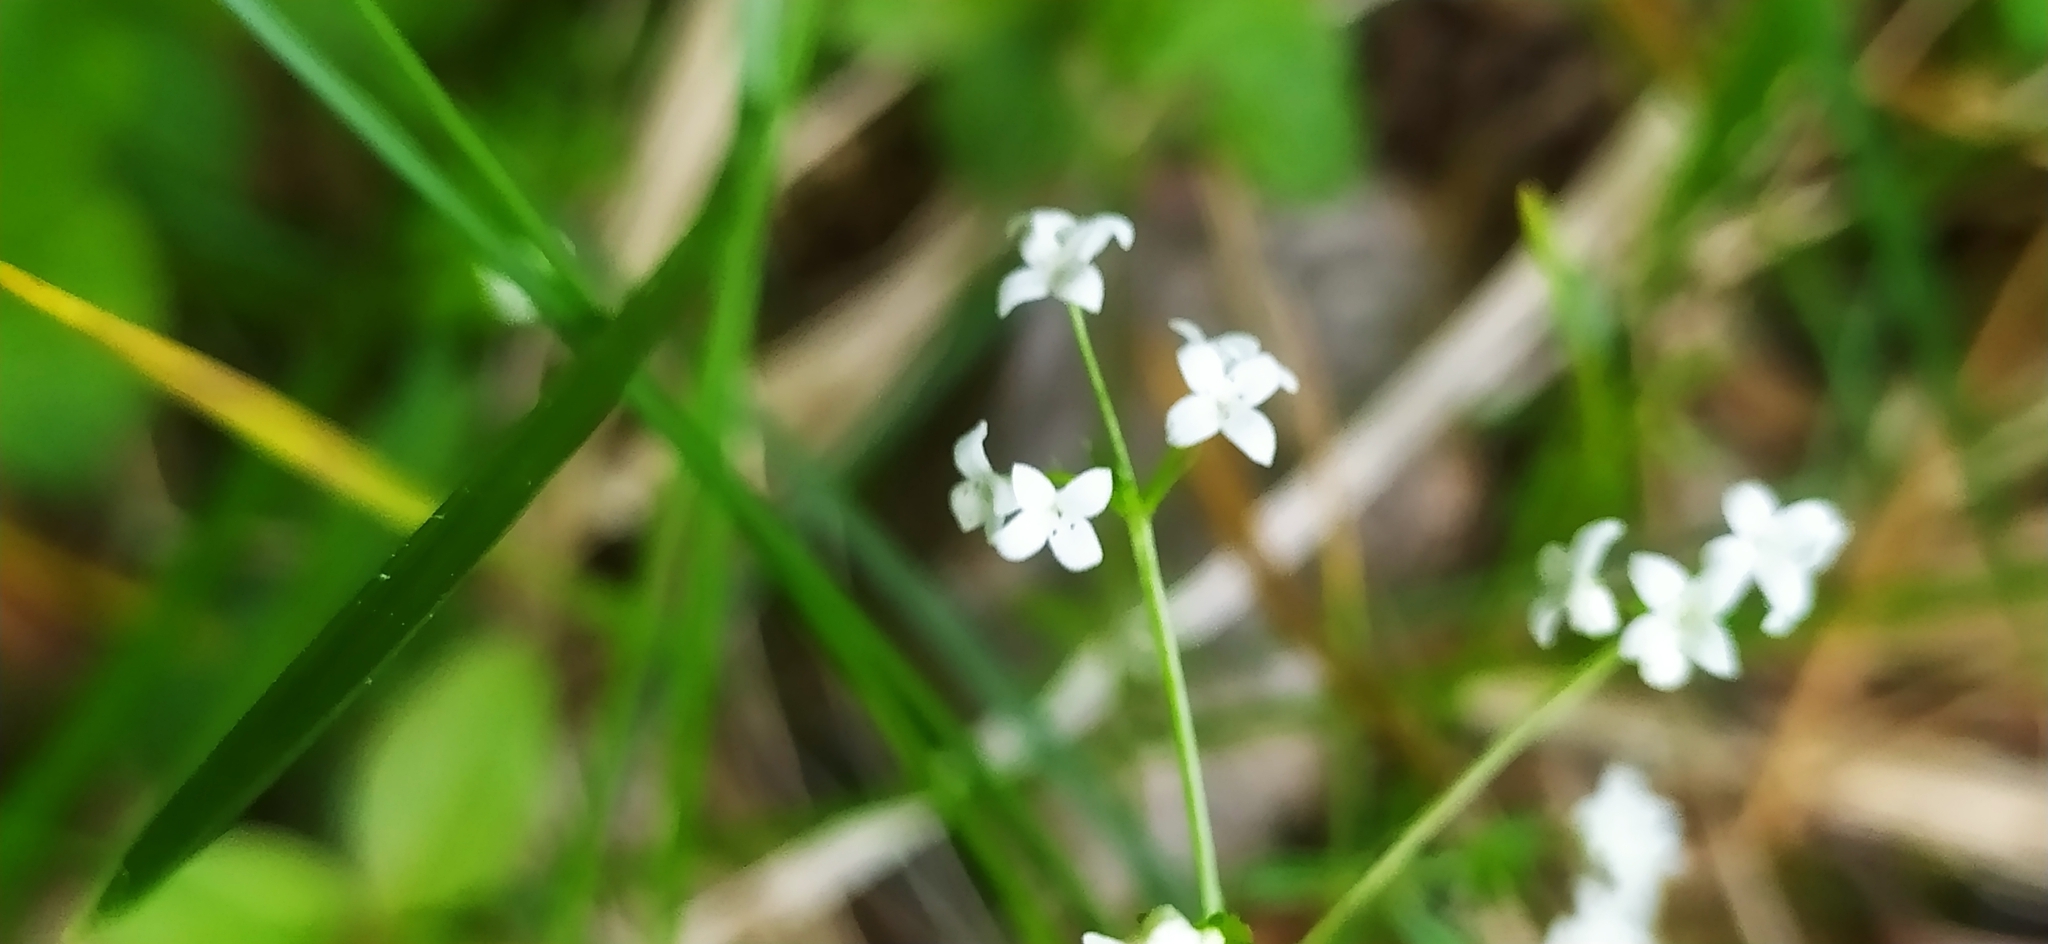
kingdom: Plantae
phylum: Tracheophyta
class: Magnoliopsida
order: Gentianales
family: Rubiaceae
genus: Galium
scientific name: Galium uliginosum
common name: Fen bedstraw
